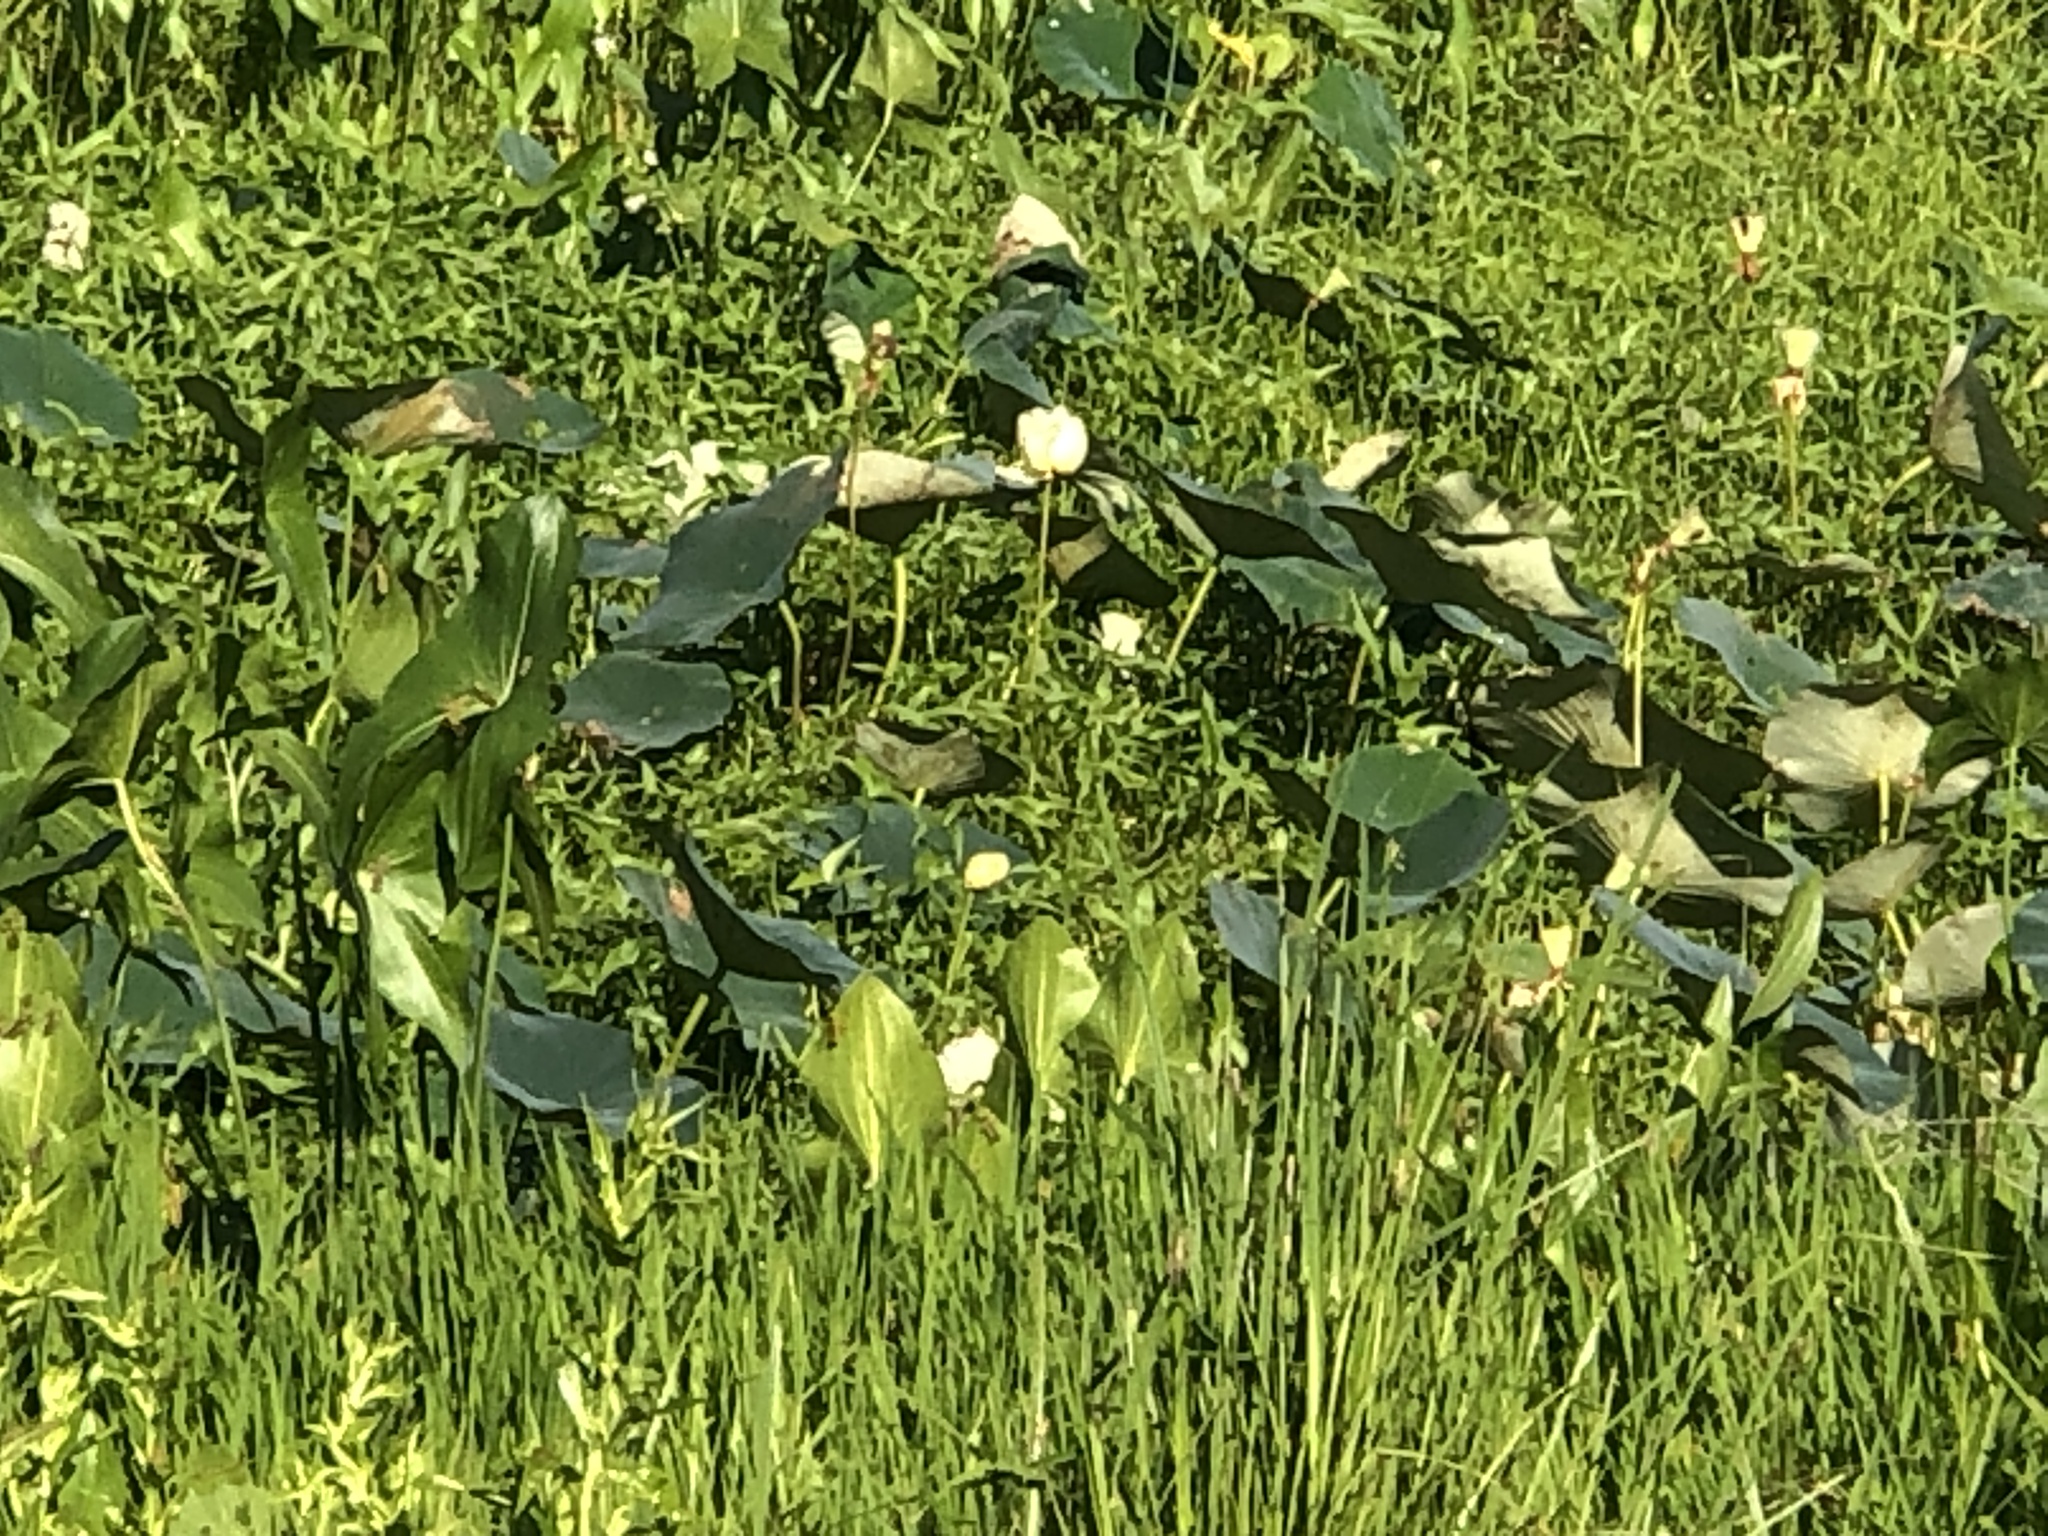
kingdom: Plantae
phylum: Tracheophyta
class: Magnoliopsida
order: Proteales
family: Nelumbonaceae
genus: Nelumbo
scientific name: Nelumbo lutea
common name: American lotus
